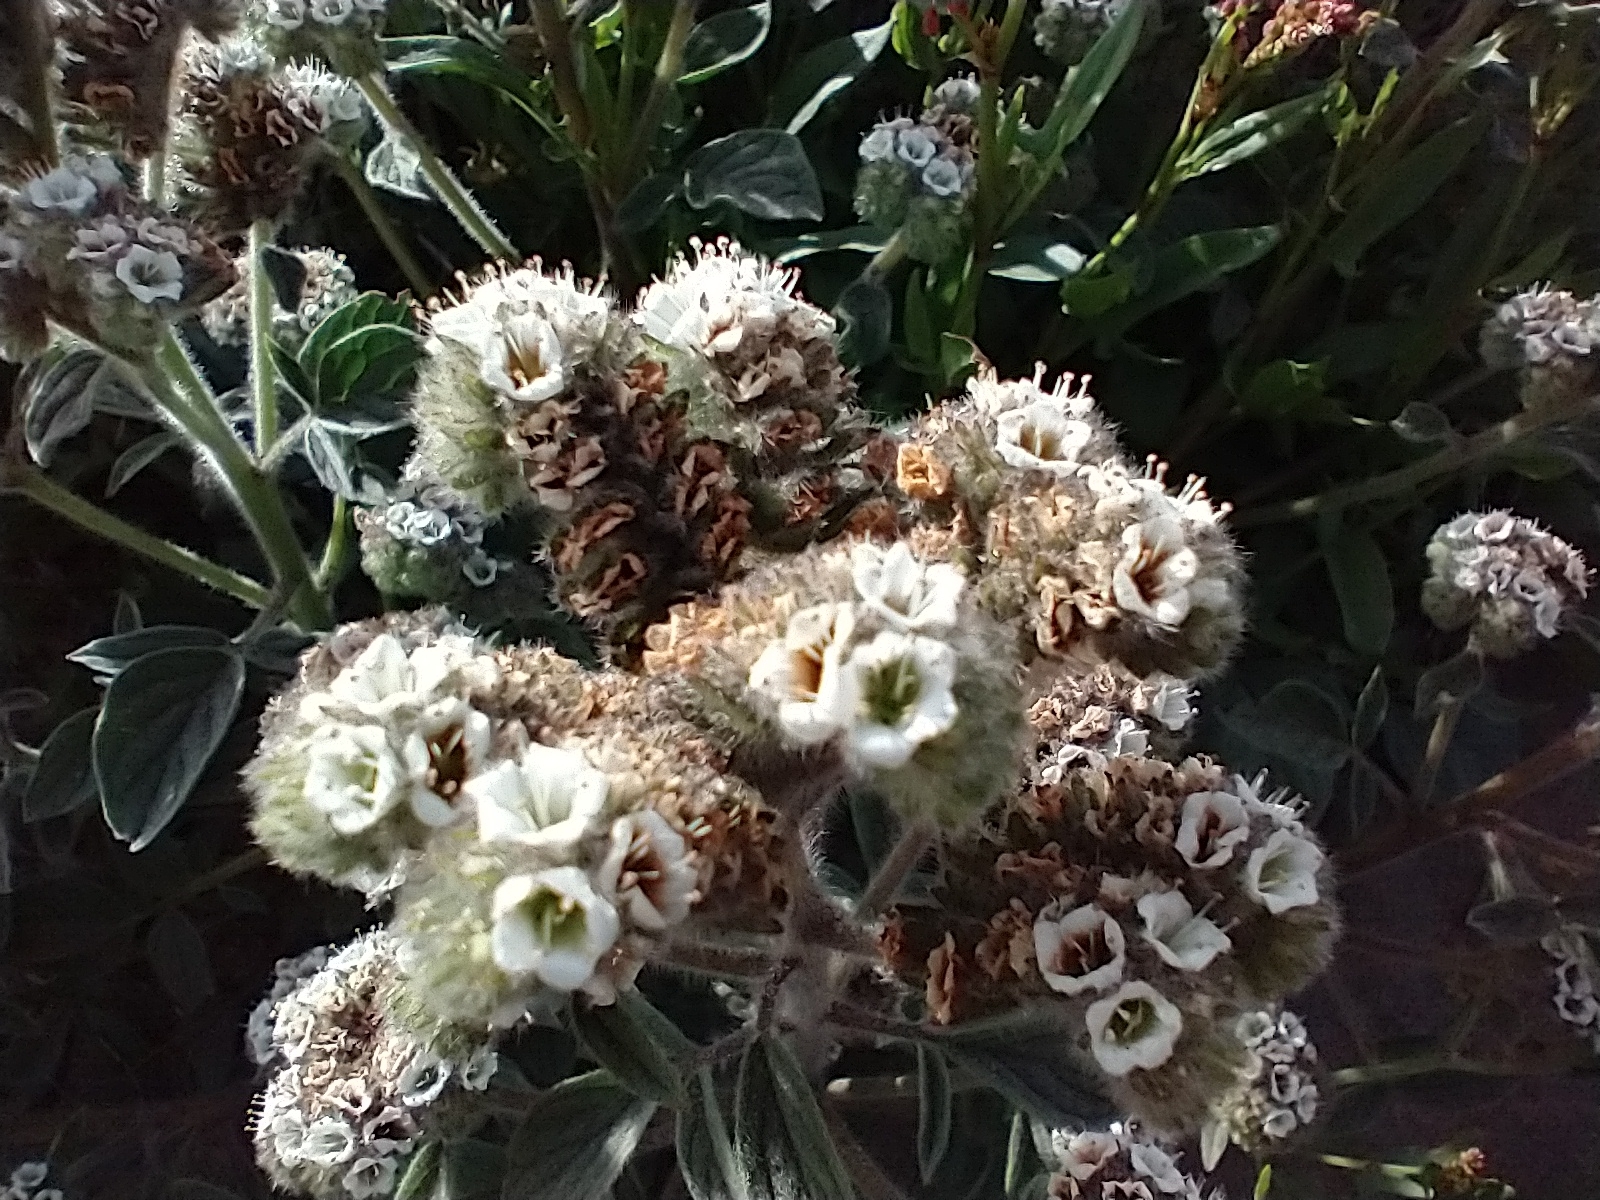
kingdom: Plantae
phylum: Tracheophyta
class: Magnoliopsida
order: Boraginales
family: Hydrophyllaceae
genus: Phacelia
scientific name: Phacelia secunda
